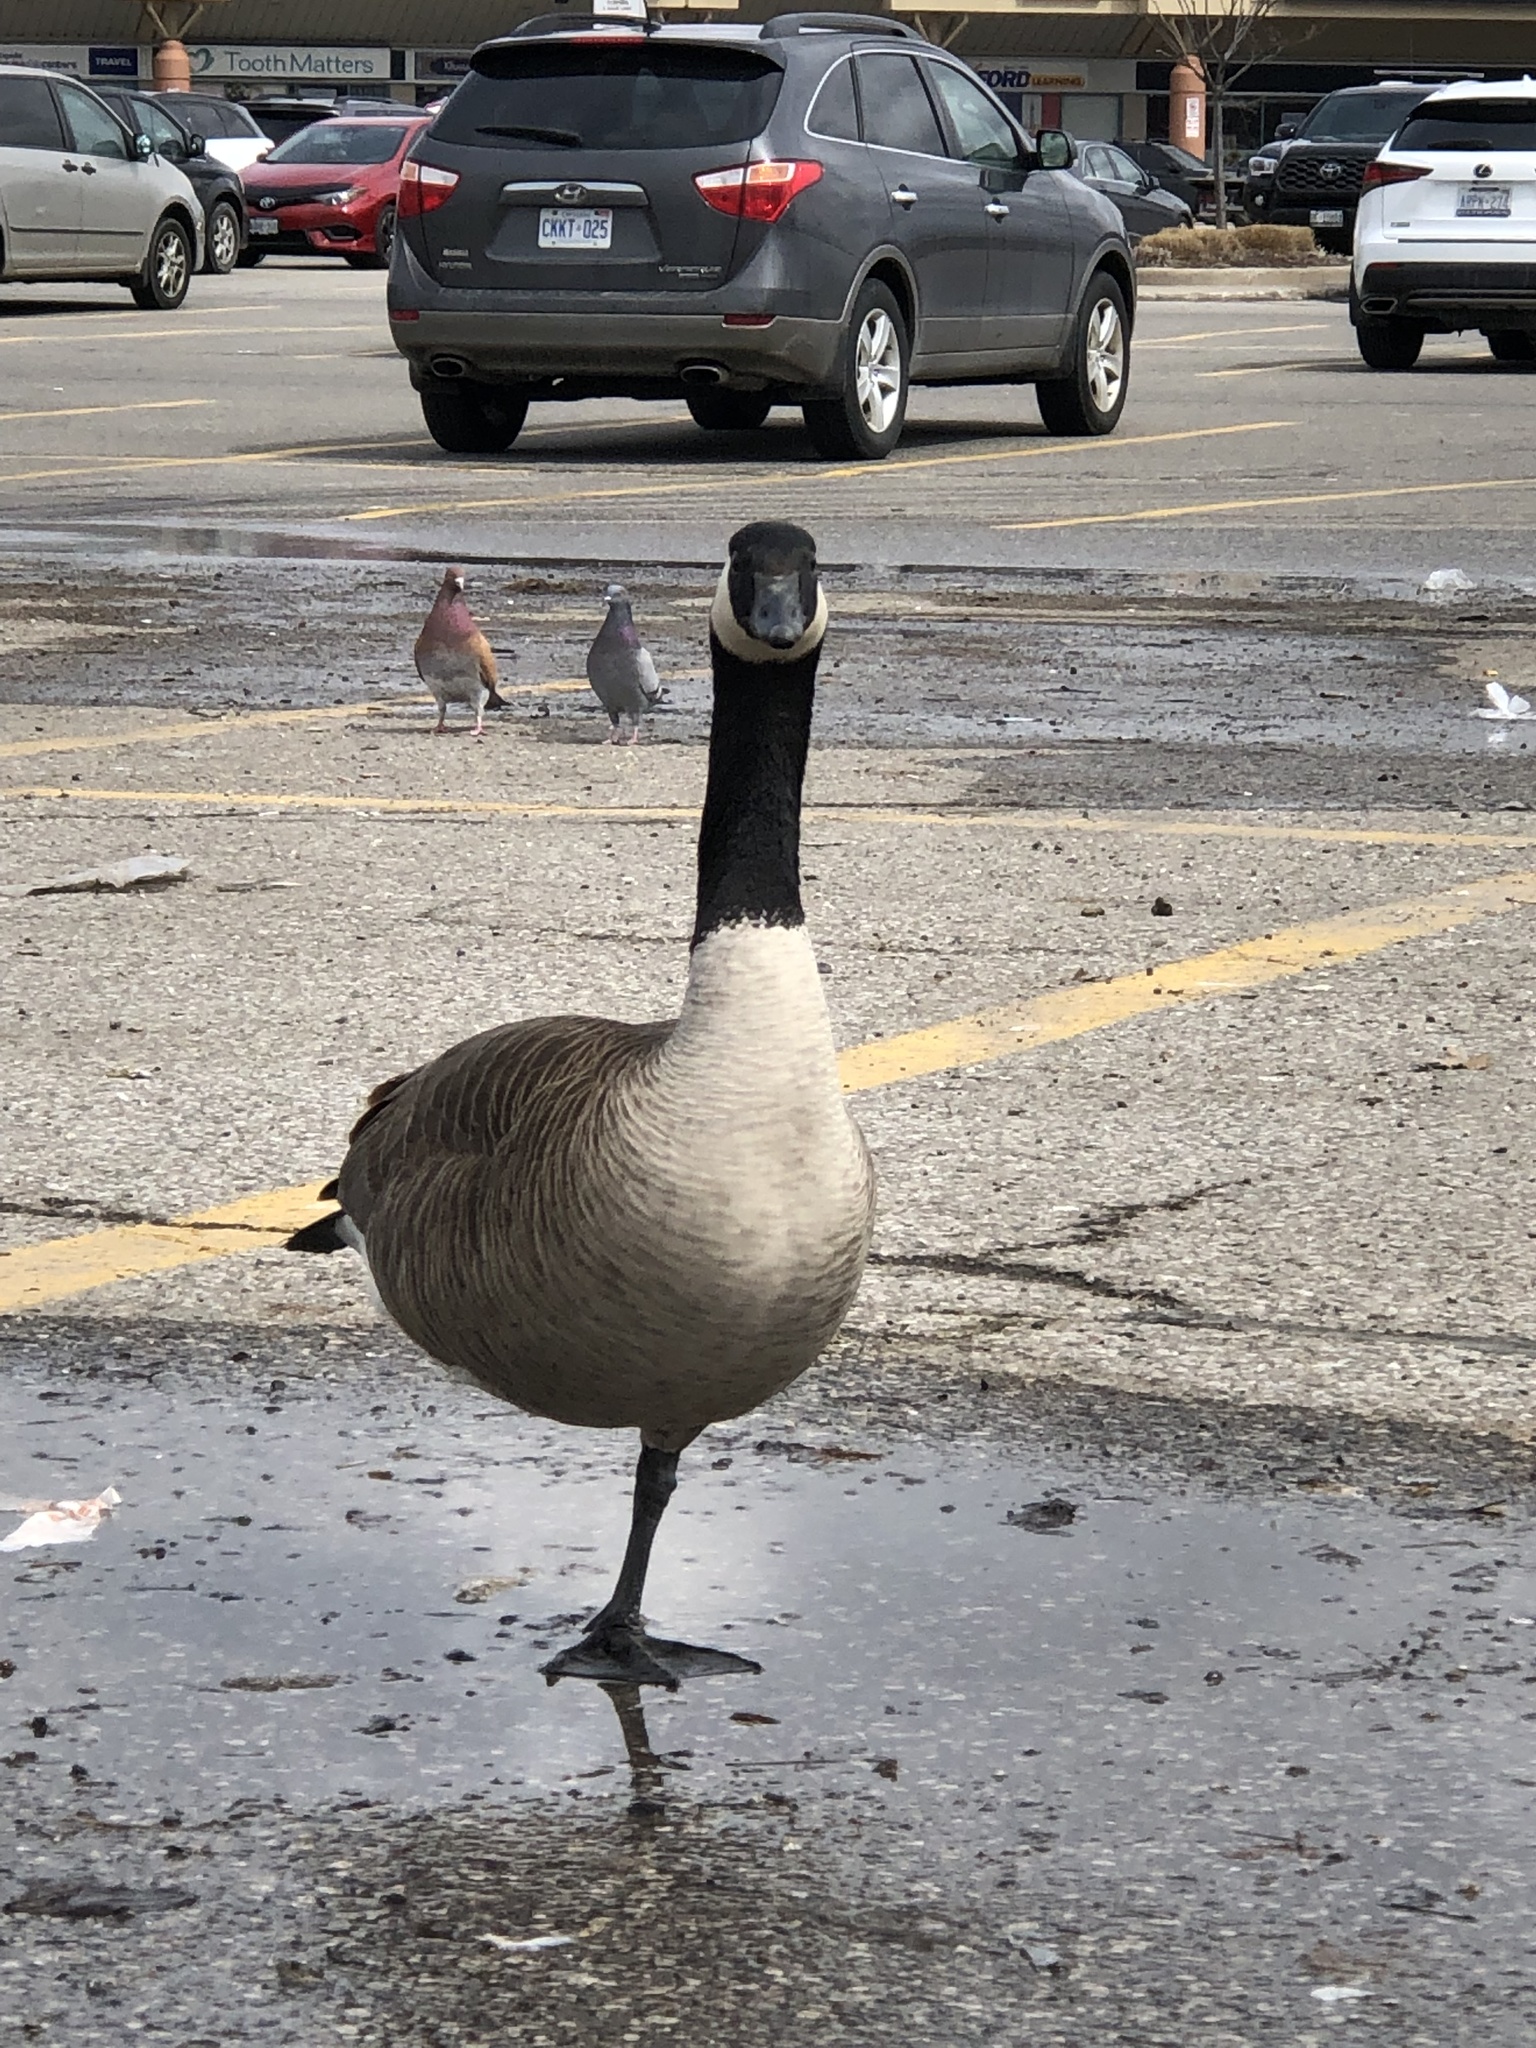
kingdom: Animalia
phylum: Chordata
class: Aves
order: Anseriformes
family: Anatidae
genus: Branta
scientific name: Branta canadensis
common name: Canada goose
